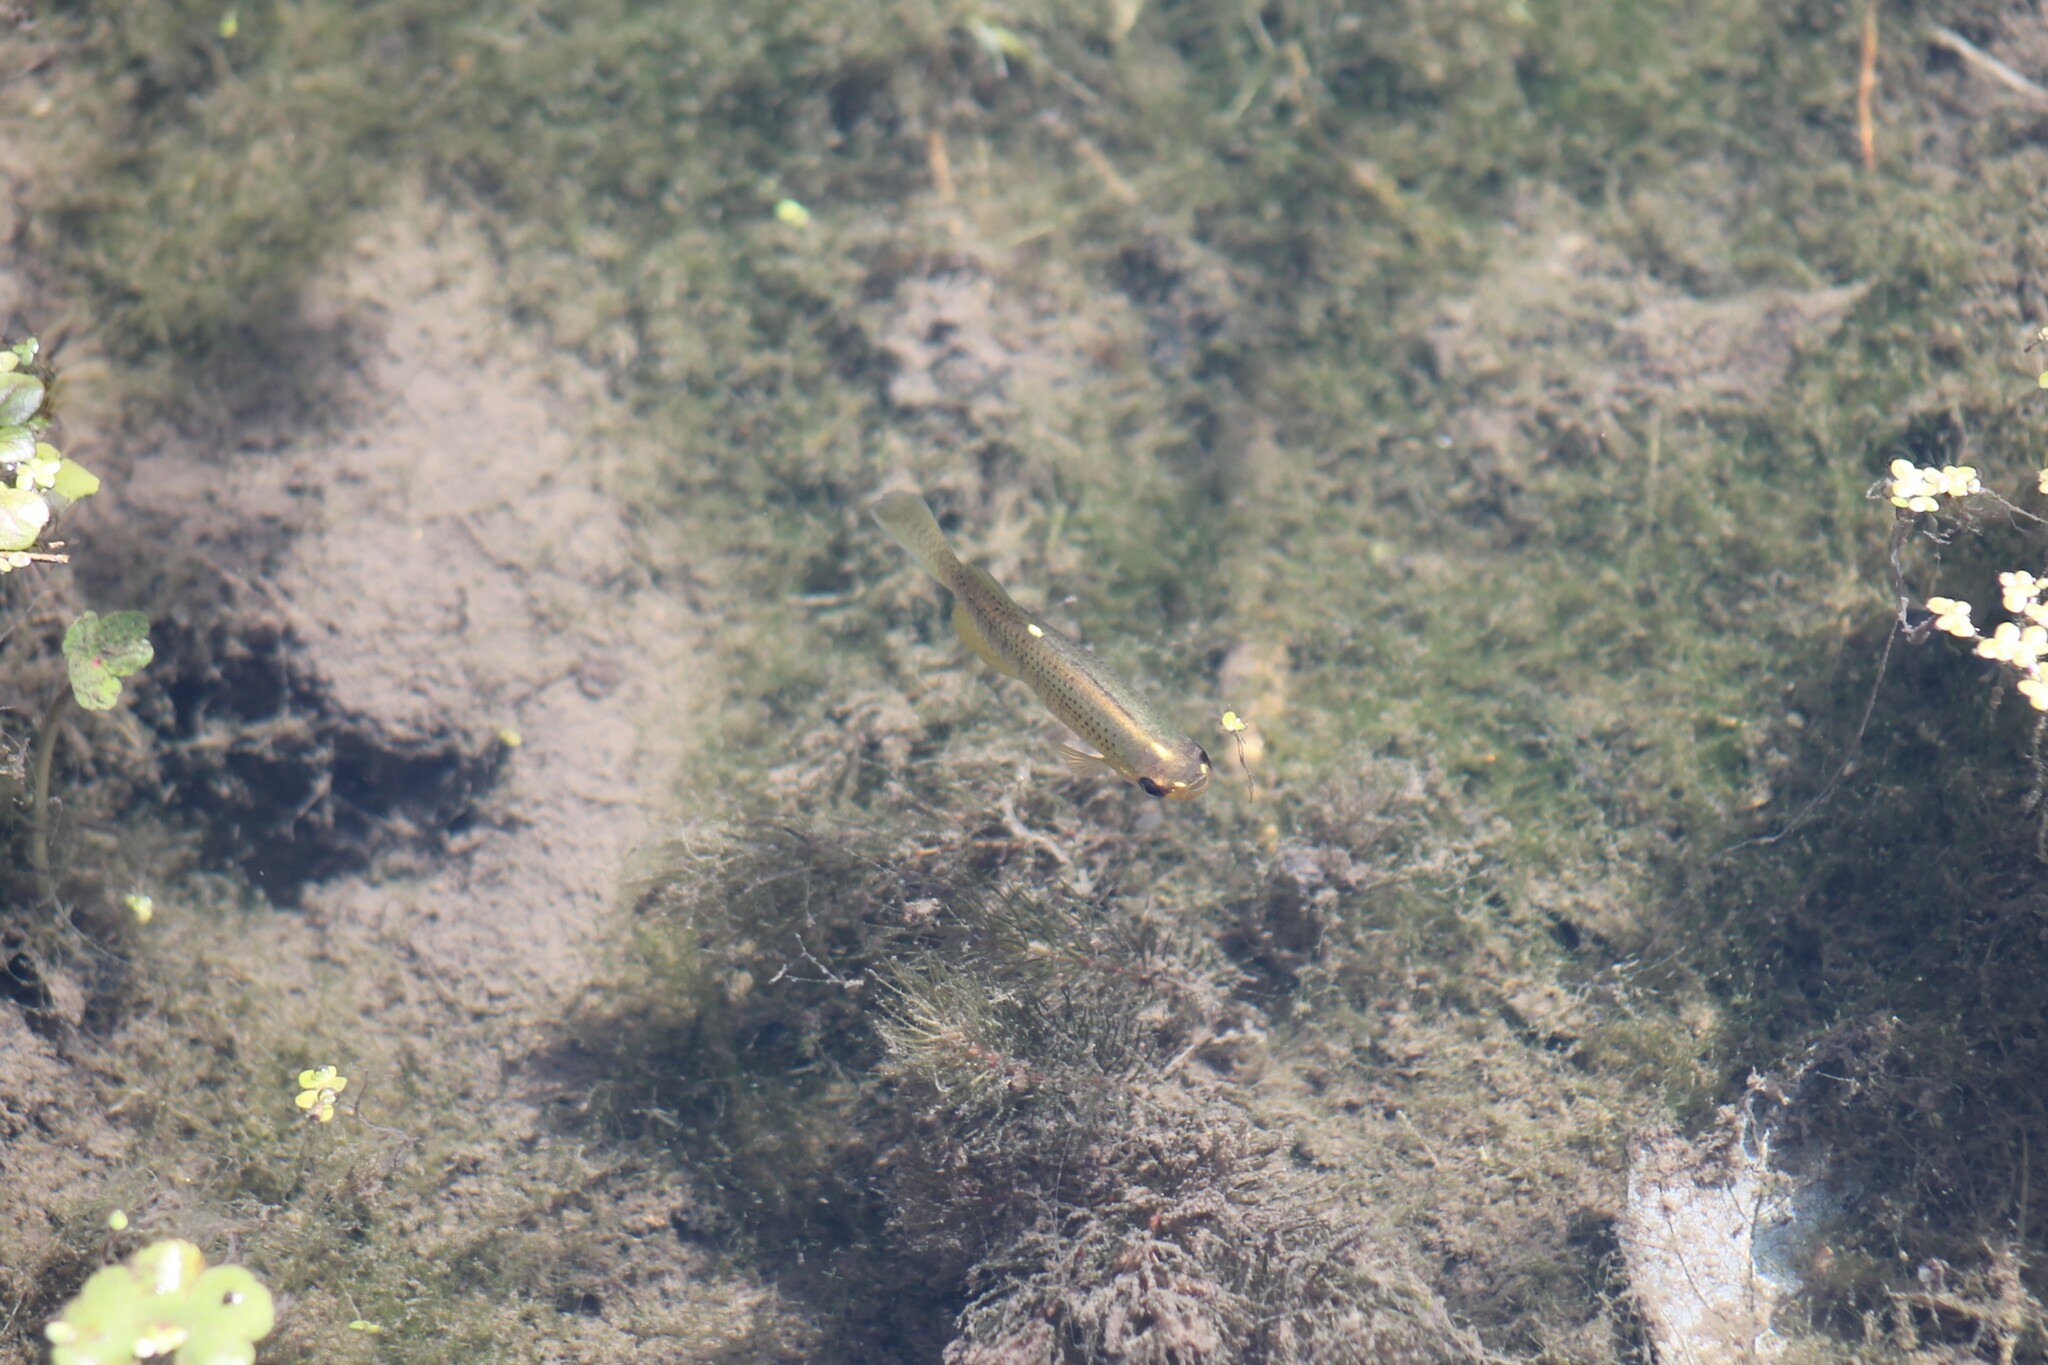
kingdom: Animalia
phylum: Chordata
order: Cyprinodontiformes
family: Fundulidae
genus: Fundulus
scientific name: Fundulus dispar
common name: Starhead topminnow
